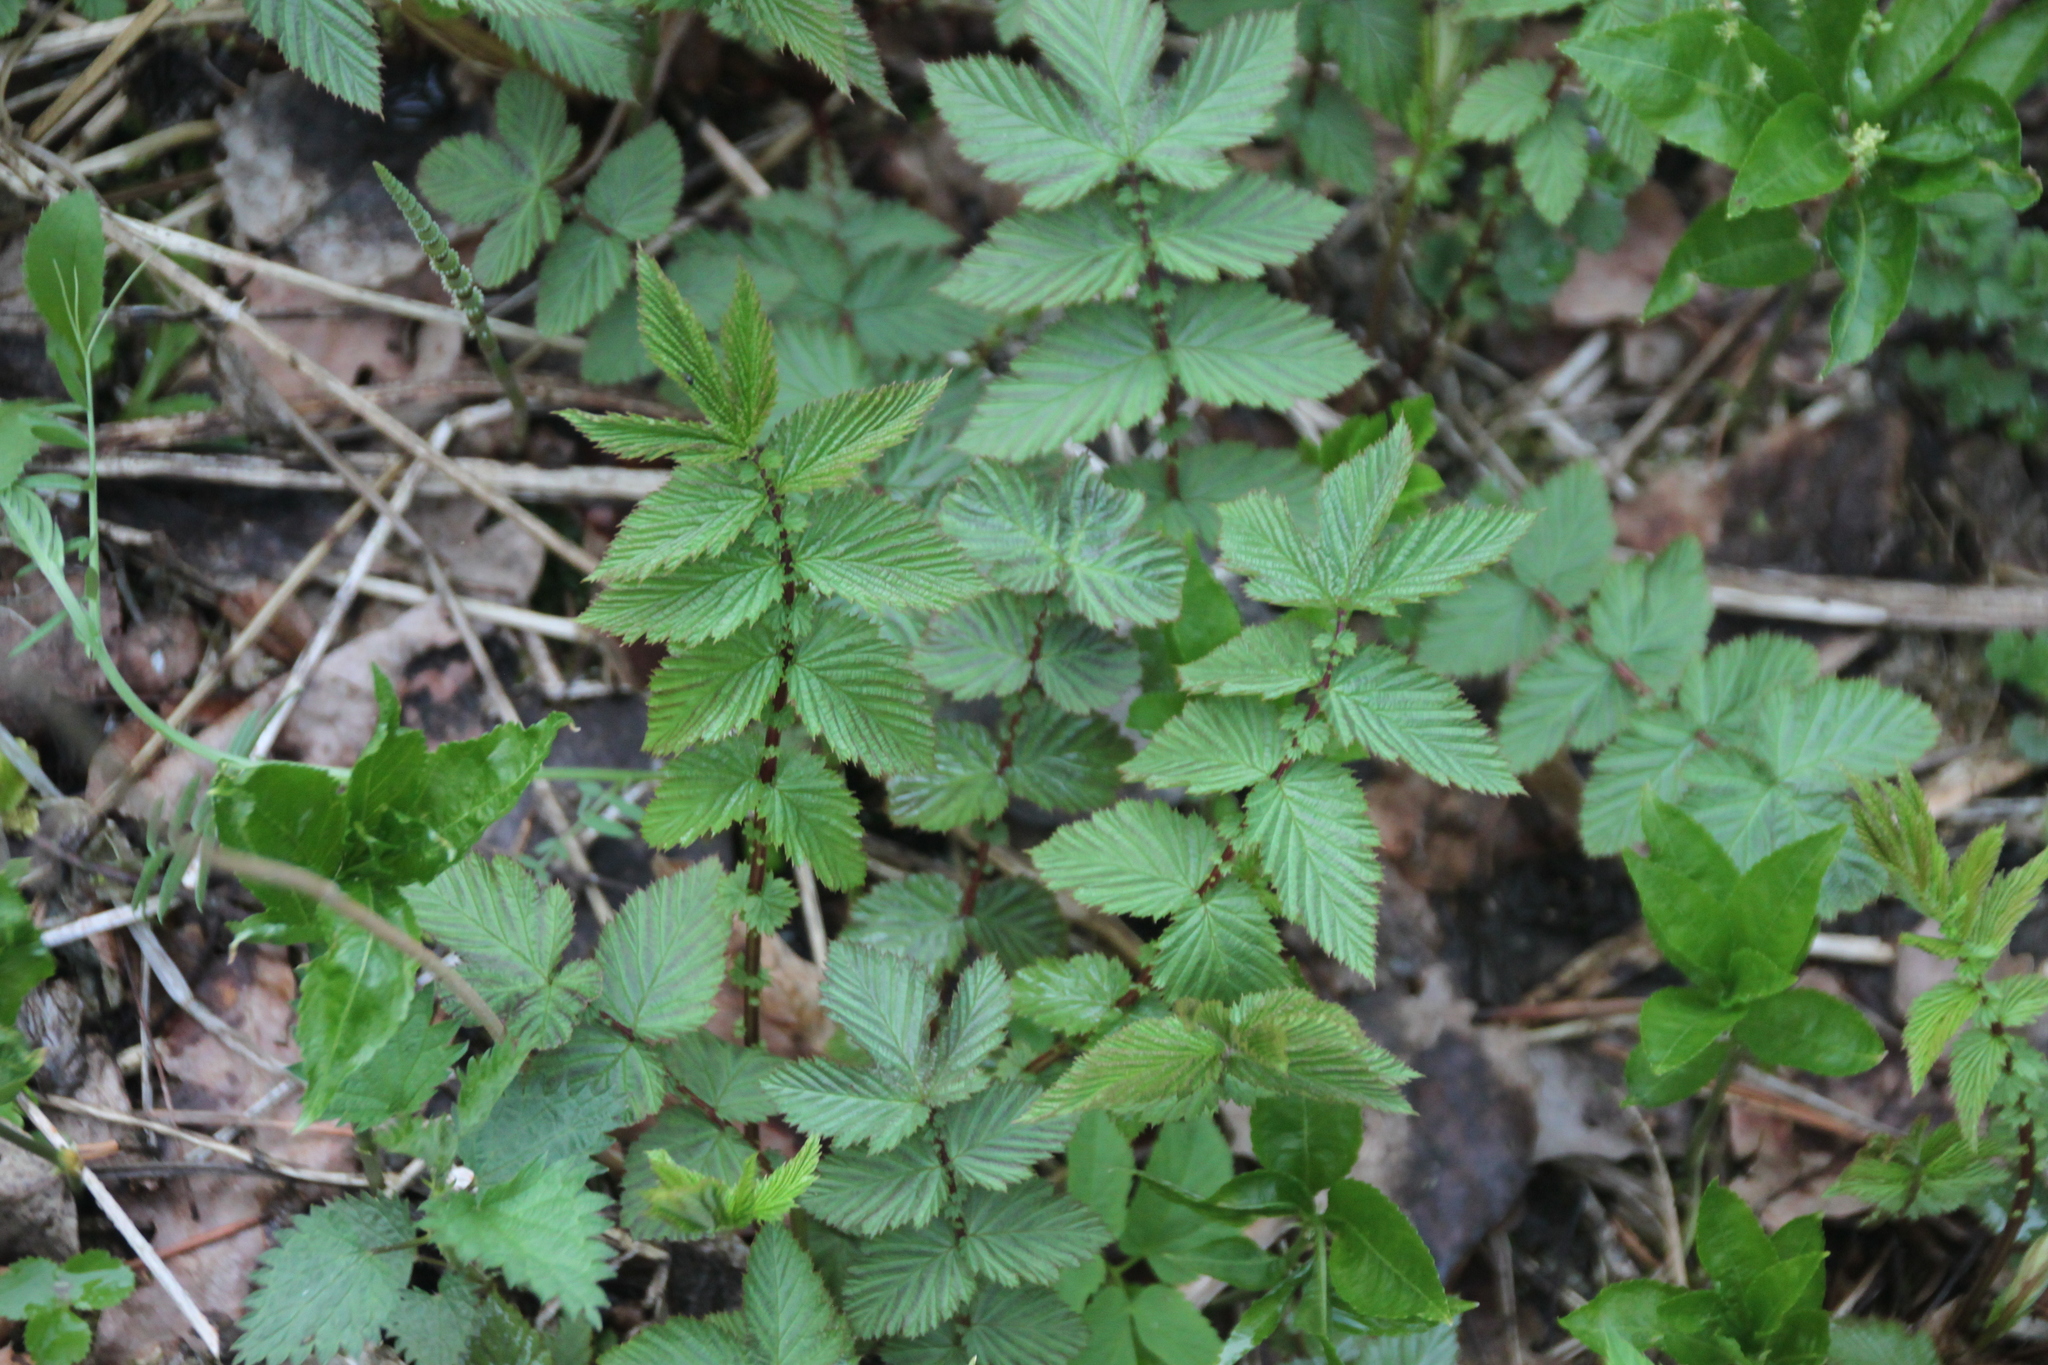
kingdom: Plantae
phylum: Tracheophyta
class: Magnoliopsida
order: Rosales
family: Rosaceae
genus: Filipendula
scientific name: Filipendula ulmaria
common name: Meadowsweet
